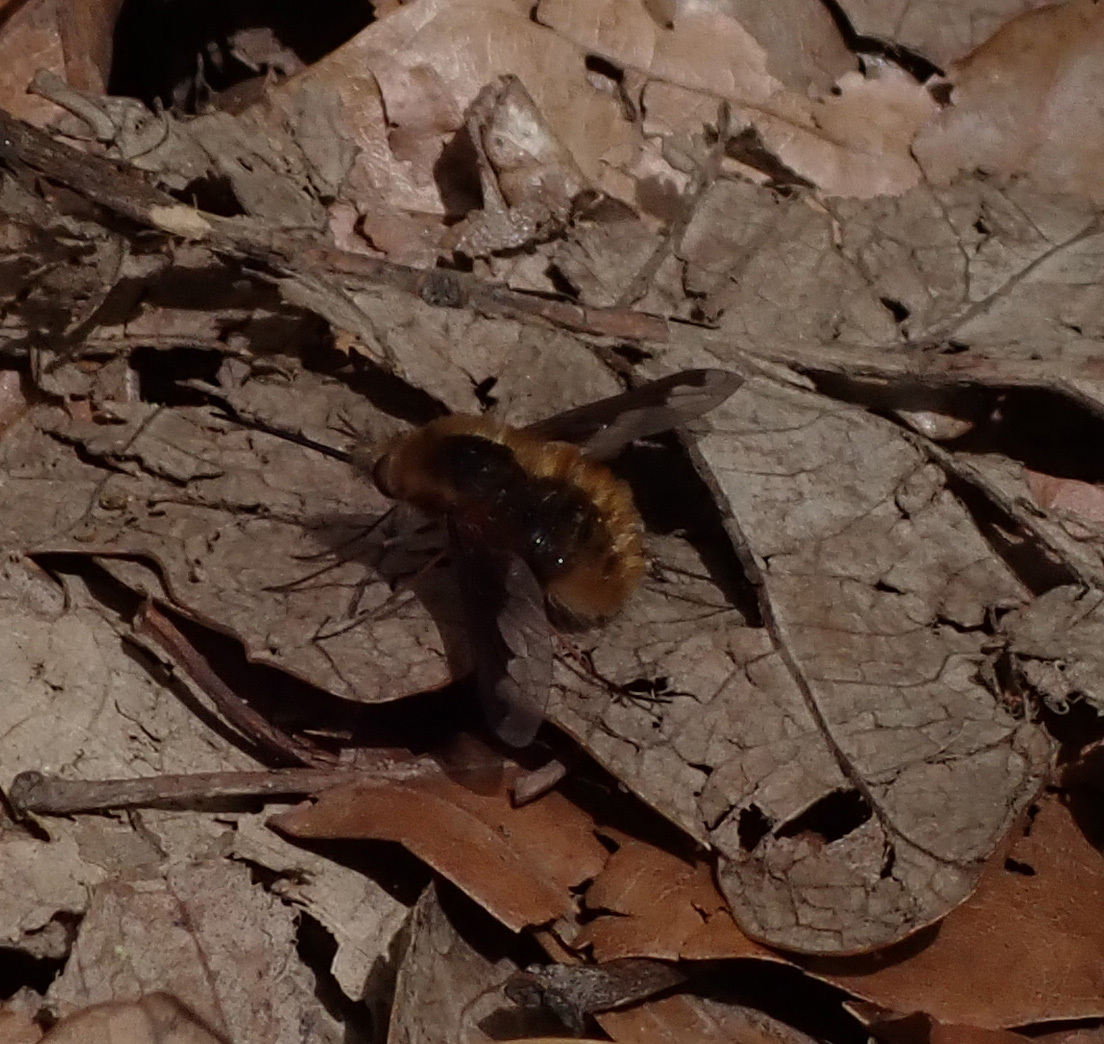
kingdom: Animalia
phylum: Arthropoda
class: Insecta
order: Diptera
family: Bombyliidae
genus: Bombylius
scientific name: Bombylius major
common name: Bee fly
